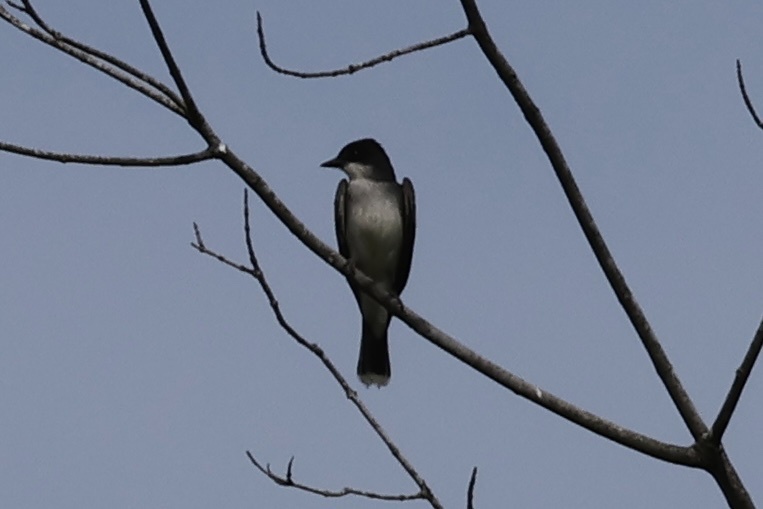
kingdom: Animalia
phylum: Chordata
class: Aves
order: Passeriformes
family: Tyrannidae
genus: Tyrannus
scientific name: Tyrannus tyrannus
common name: Eastern kingbird
